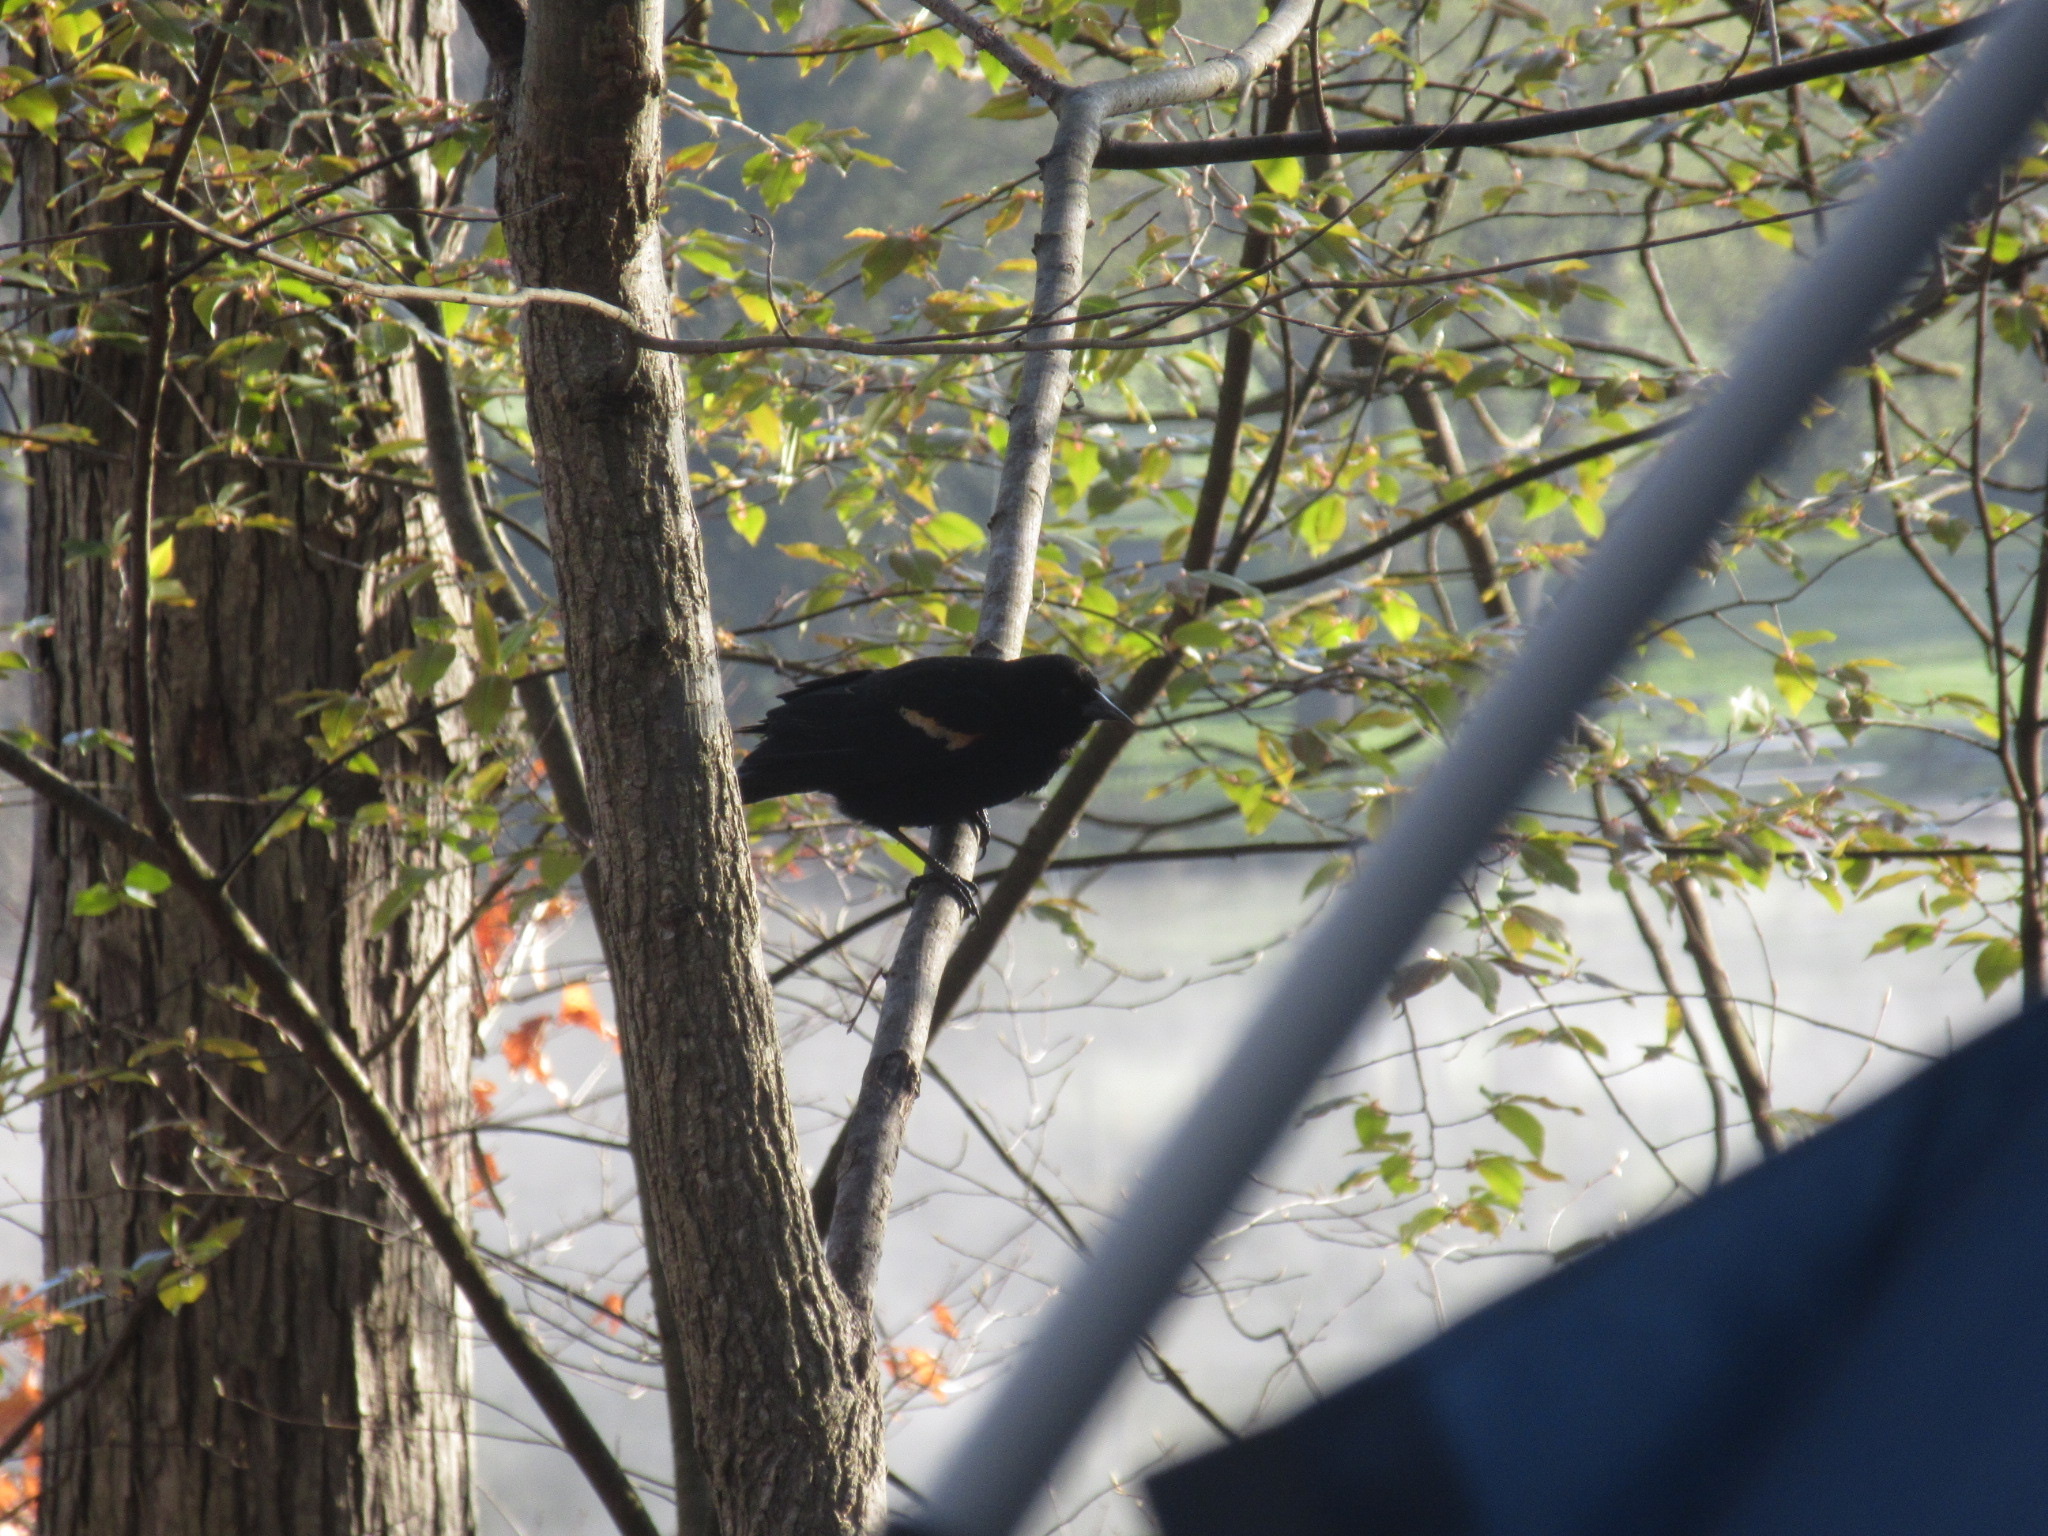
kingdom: Animalia
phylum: Chordata
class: Aves
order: Passeriformes
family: Icteridae
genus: Agelaius
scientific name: Agelaius phoeniceus
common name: Red-winged blackbird
